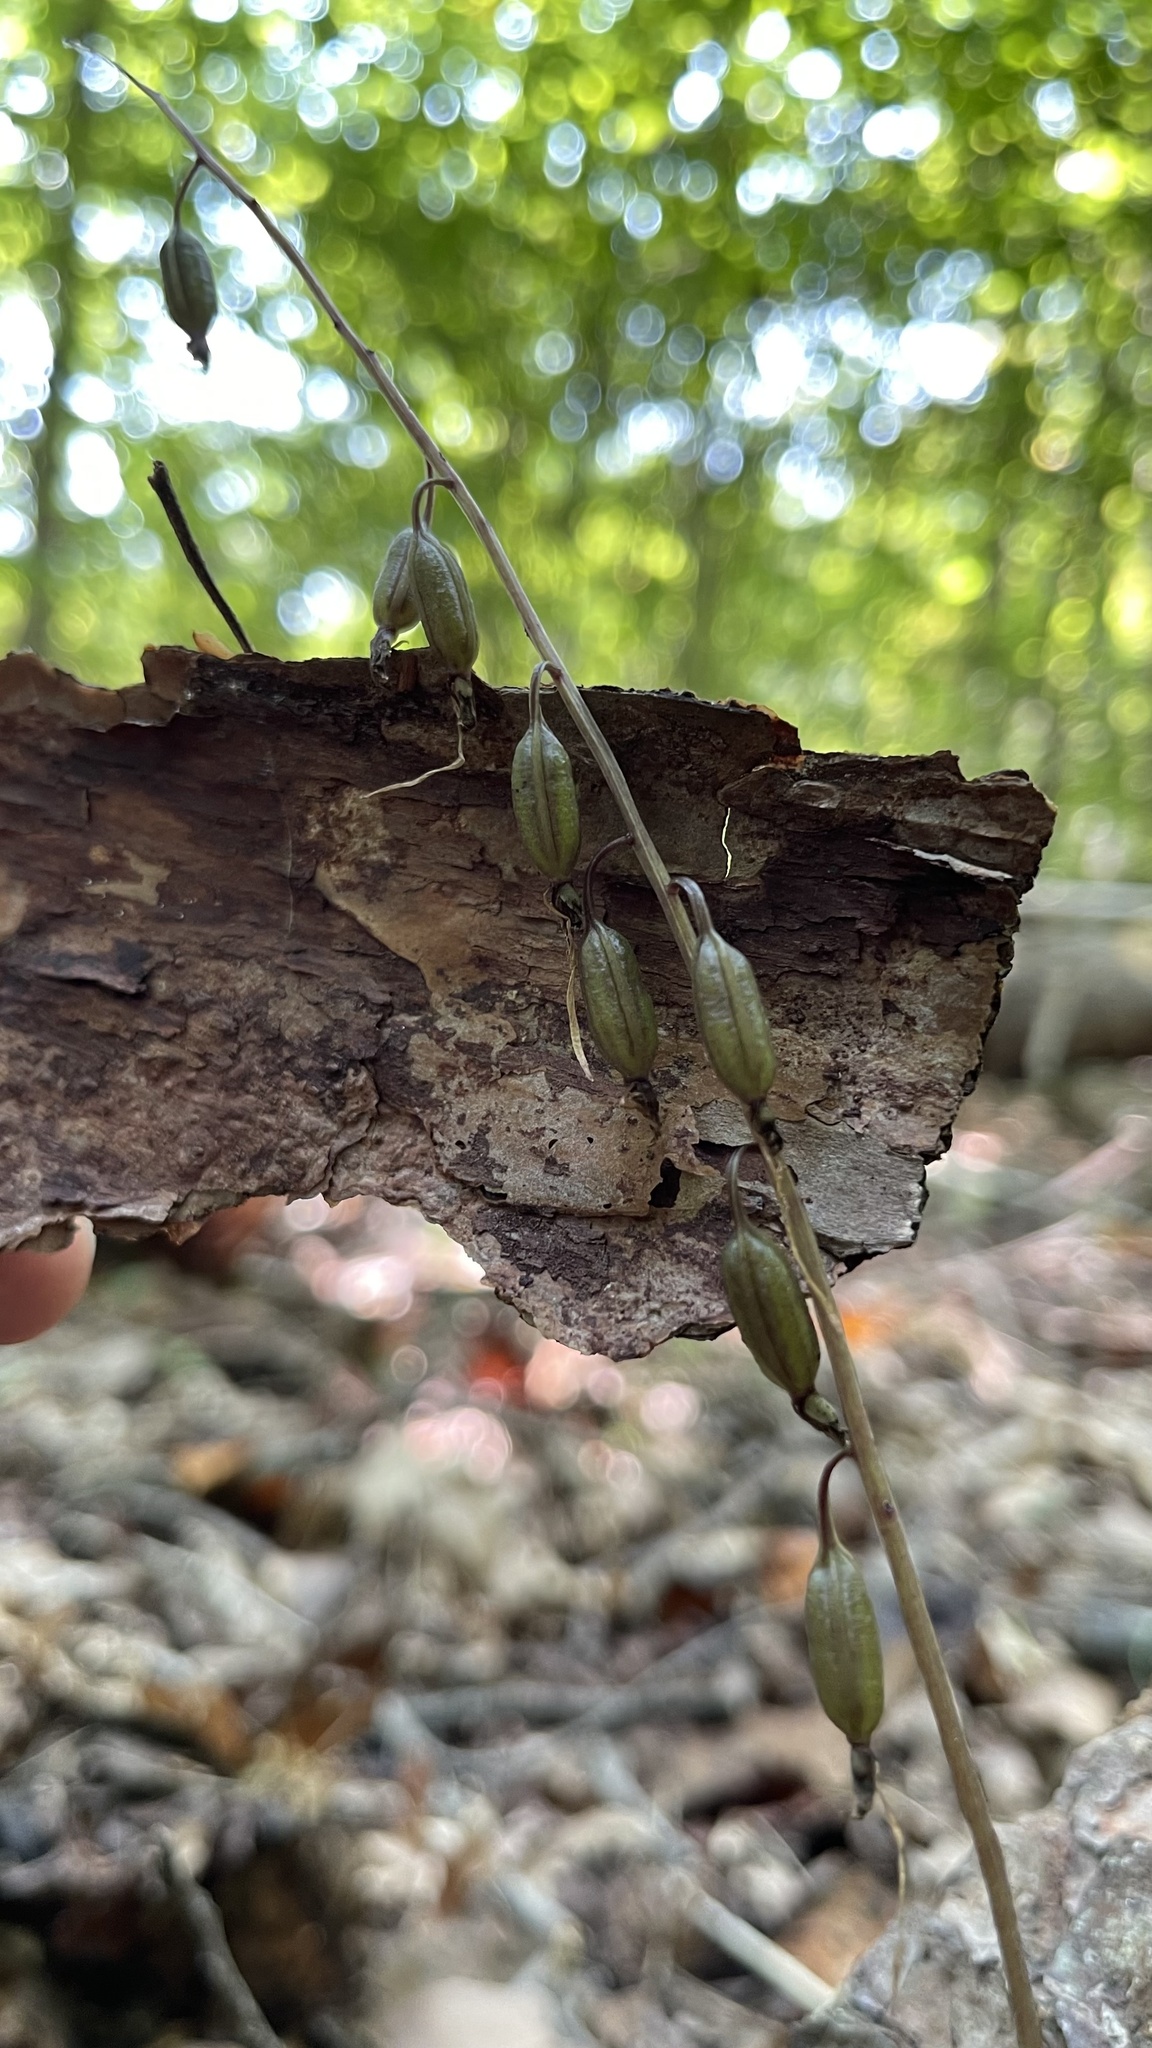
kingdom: Plantae
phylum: Tracheophyta
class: Liliopsida
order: Asparagales
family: Orchidaceae
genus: Tipularia
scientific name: Tipularia discolor
